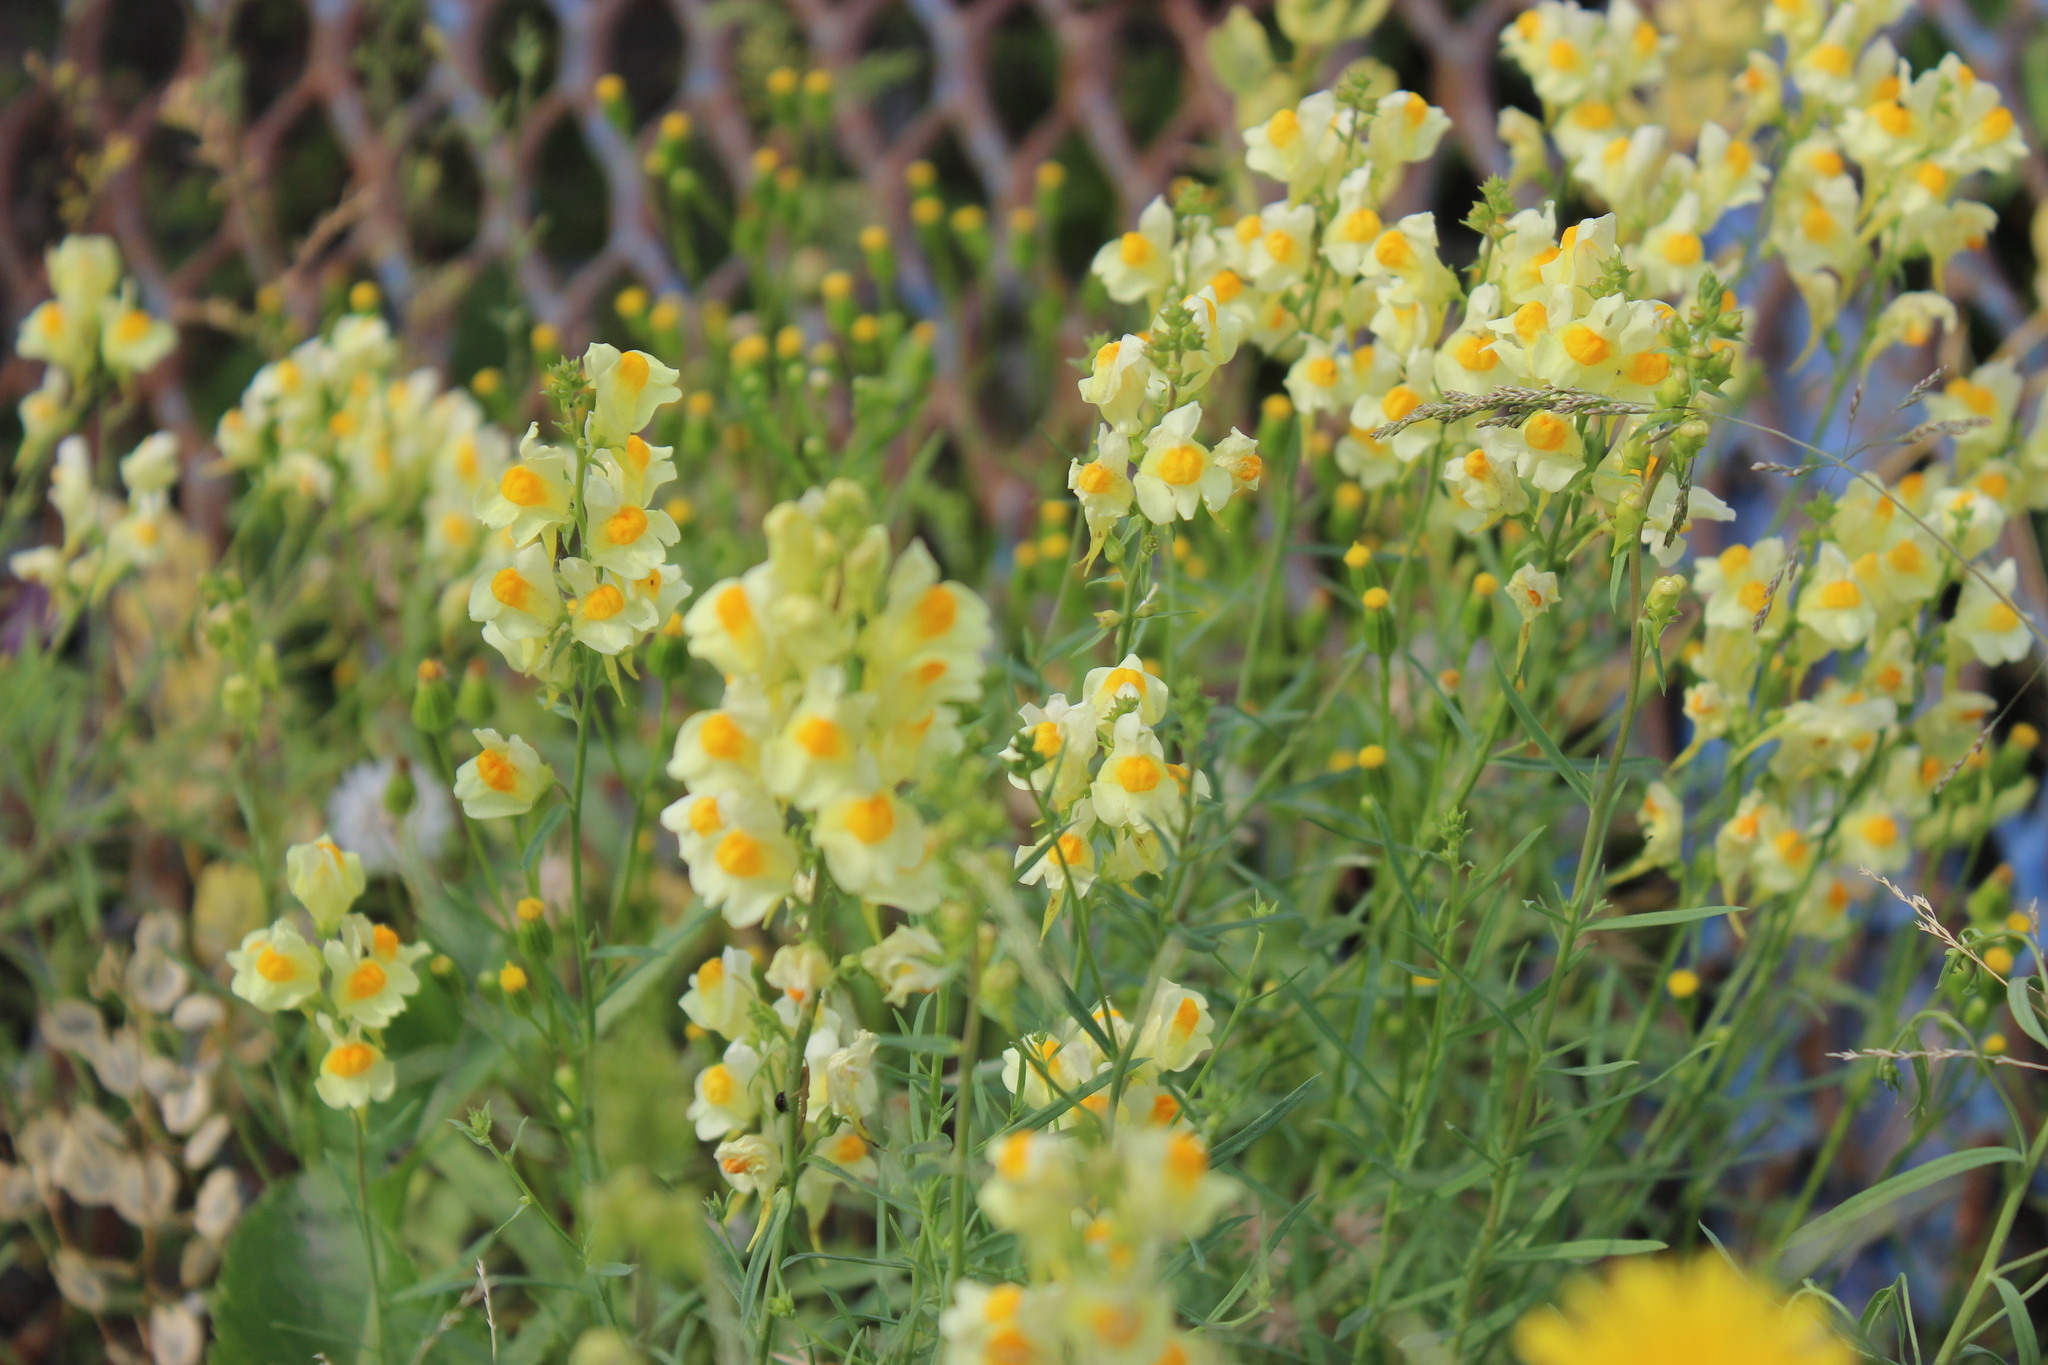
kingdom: Plantae
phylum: Tracheophyta
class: Magnoliopsida
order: Lamiales
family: Plantaginaceae
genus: Linaria
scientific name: Linaria vulgaris
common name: Butter and eggs
